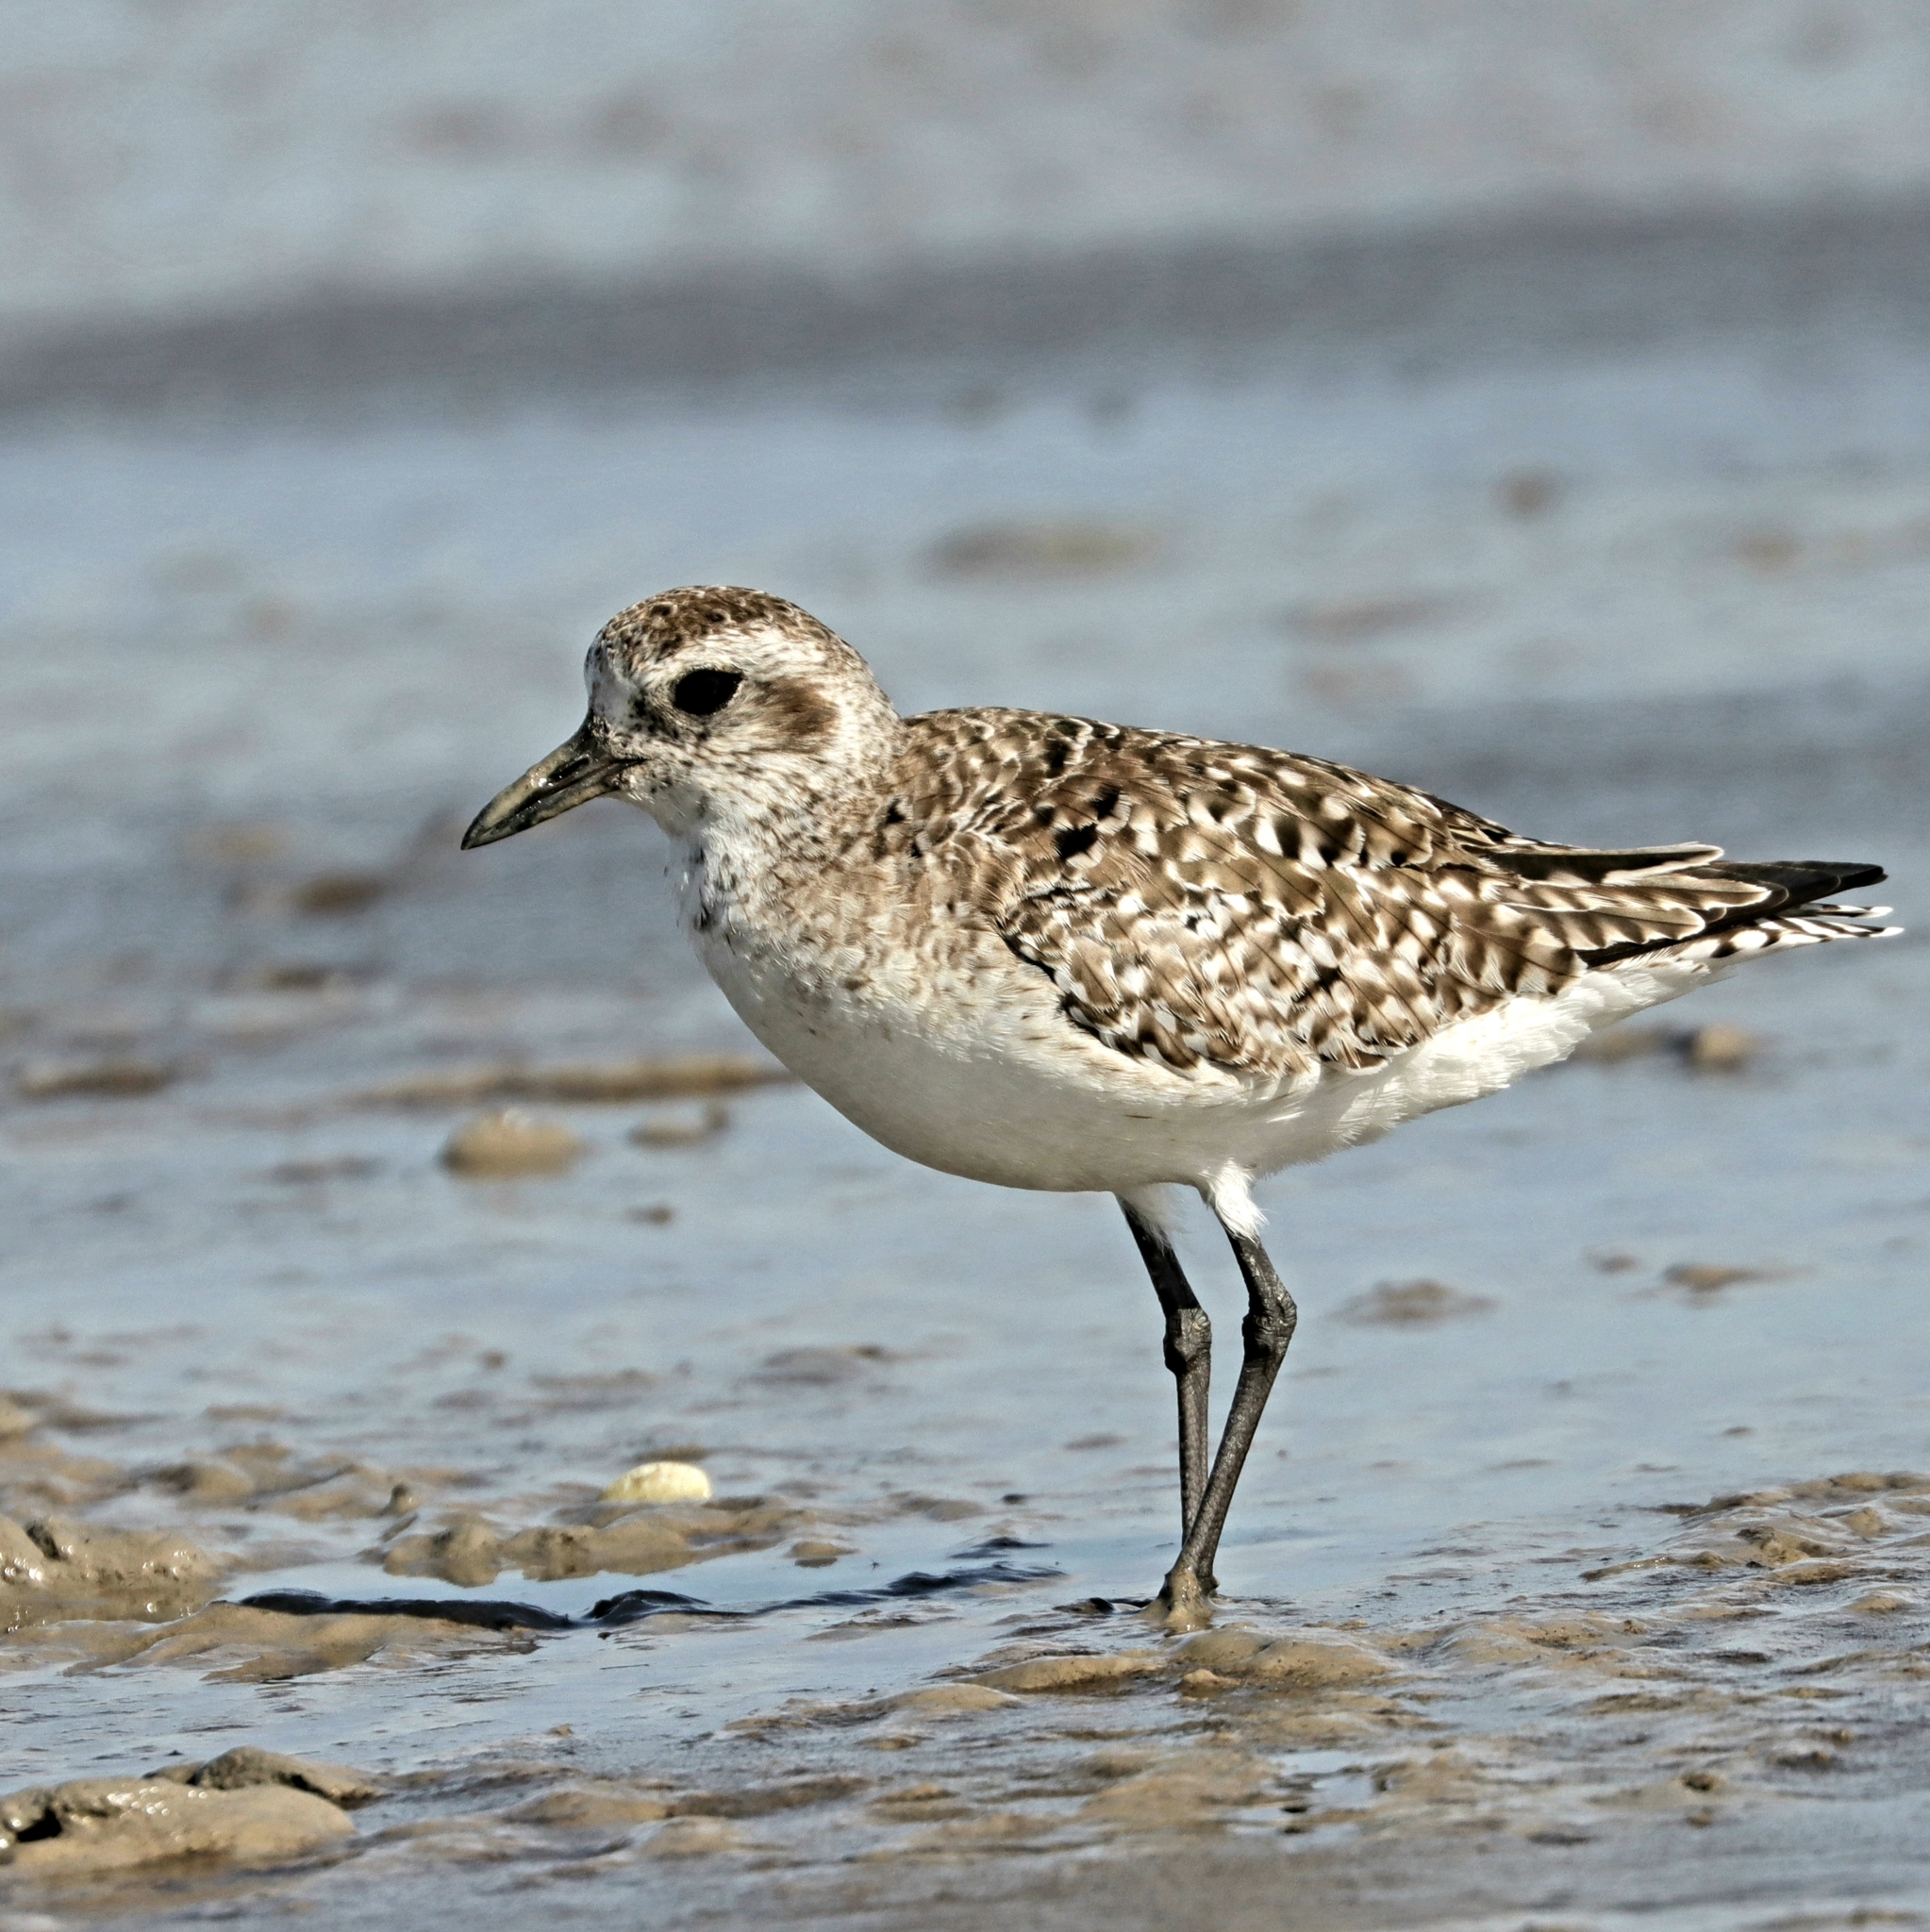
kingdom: Animalia
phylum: Chordata
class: Aves
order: Charadriiformes
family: Charadriidae
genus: Pluvialis
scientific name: Pluvialis squatarola
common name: Grey plover
